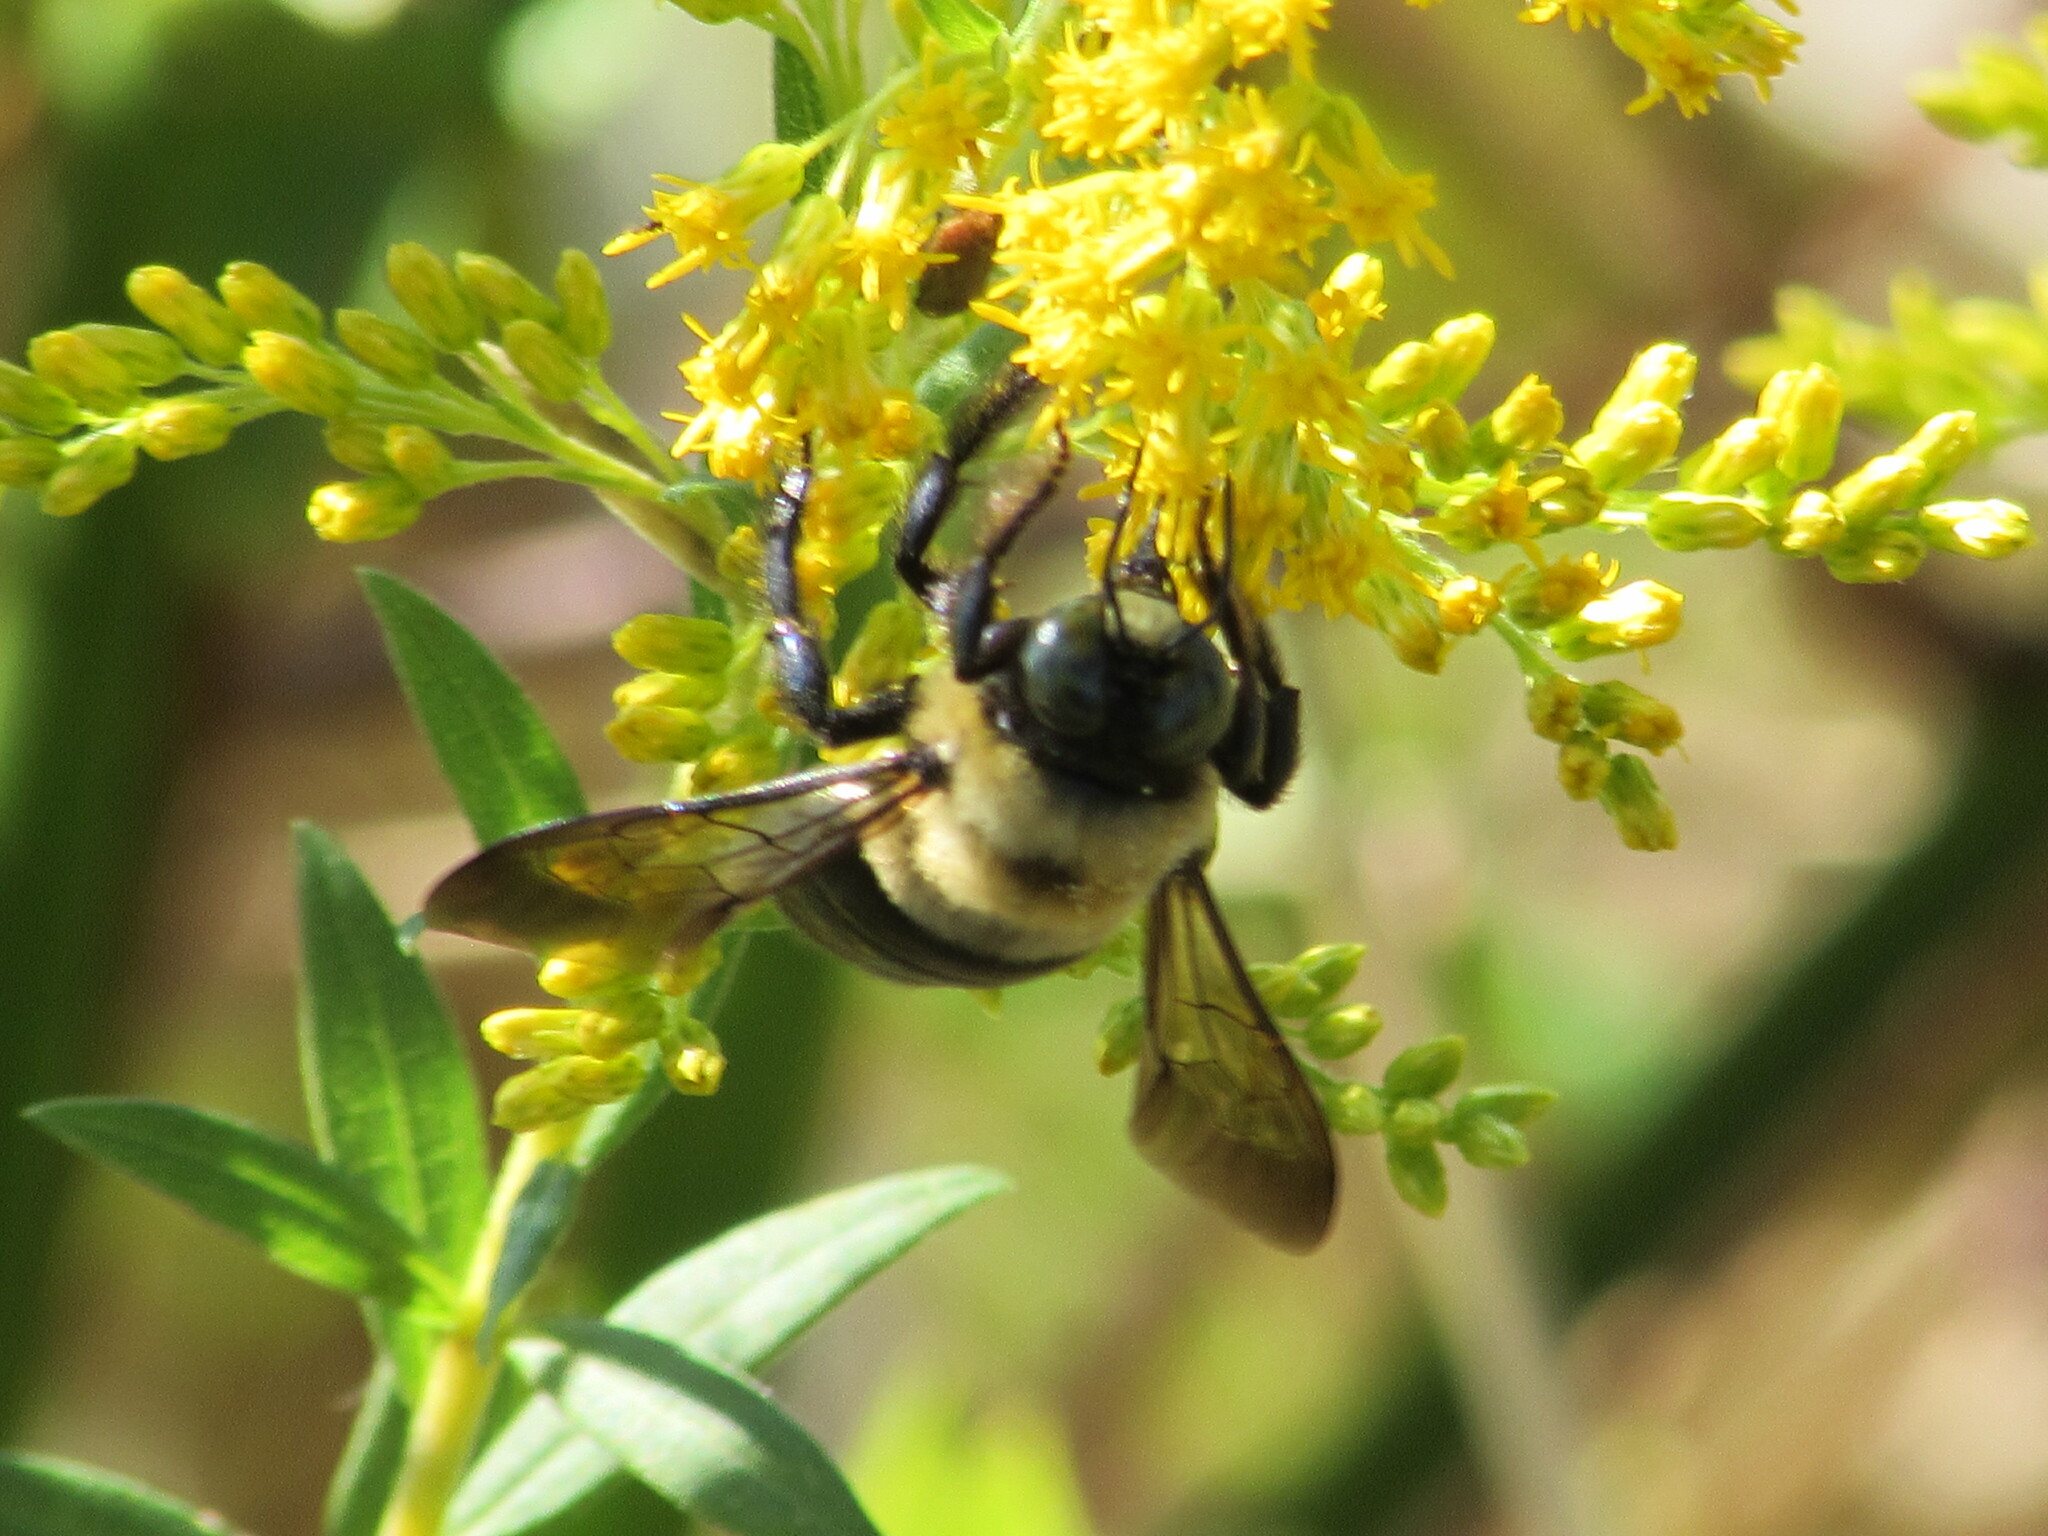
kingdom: Animalia
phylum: Arthropoda
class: Insecta
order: Hymenoptera
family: Apidae
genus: Xylocopa
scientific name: Xylocopa virginica
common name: Carpenter bee
